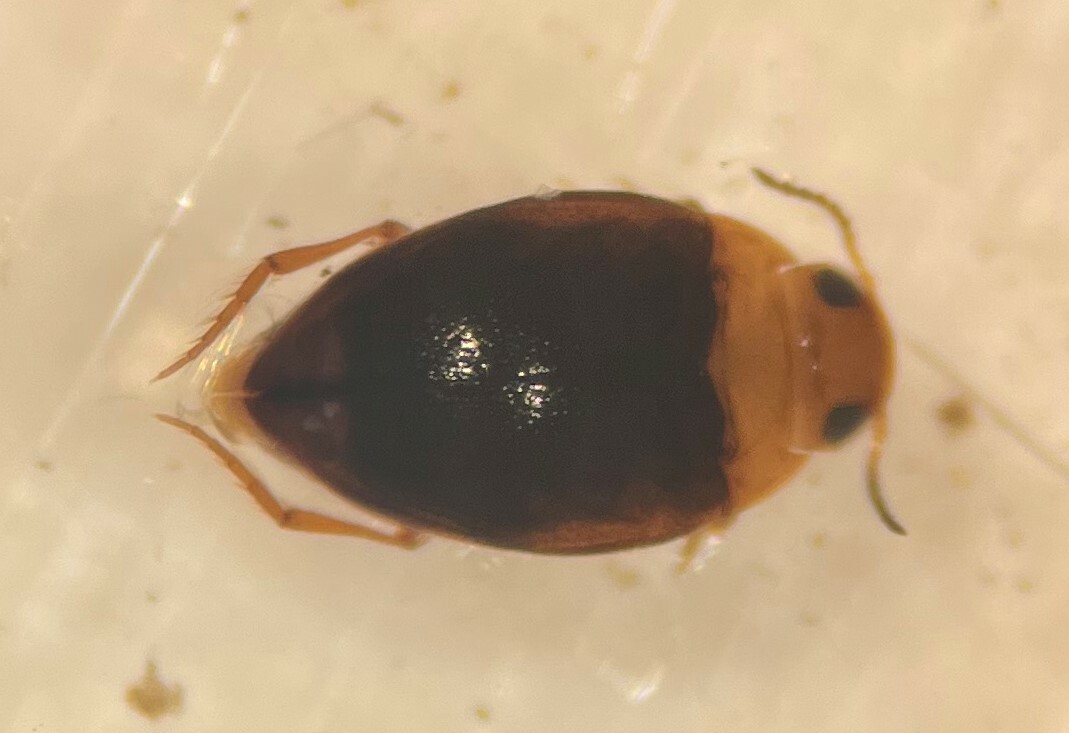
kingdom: Animalia
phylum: Arthropoda
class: Insecta
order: Coleoptera
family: Dytiscidae
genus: Uvarus
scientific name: Uvarus falli
